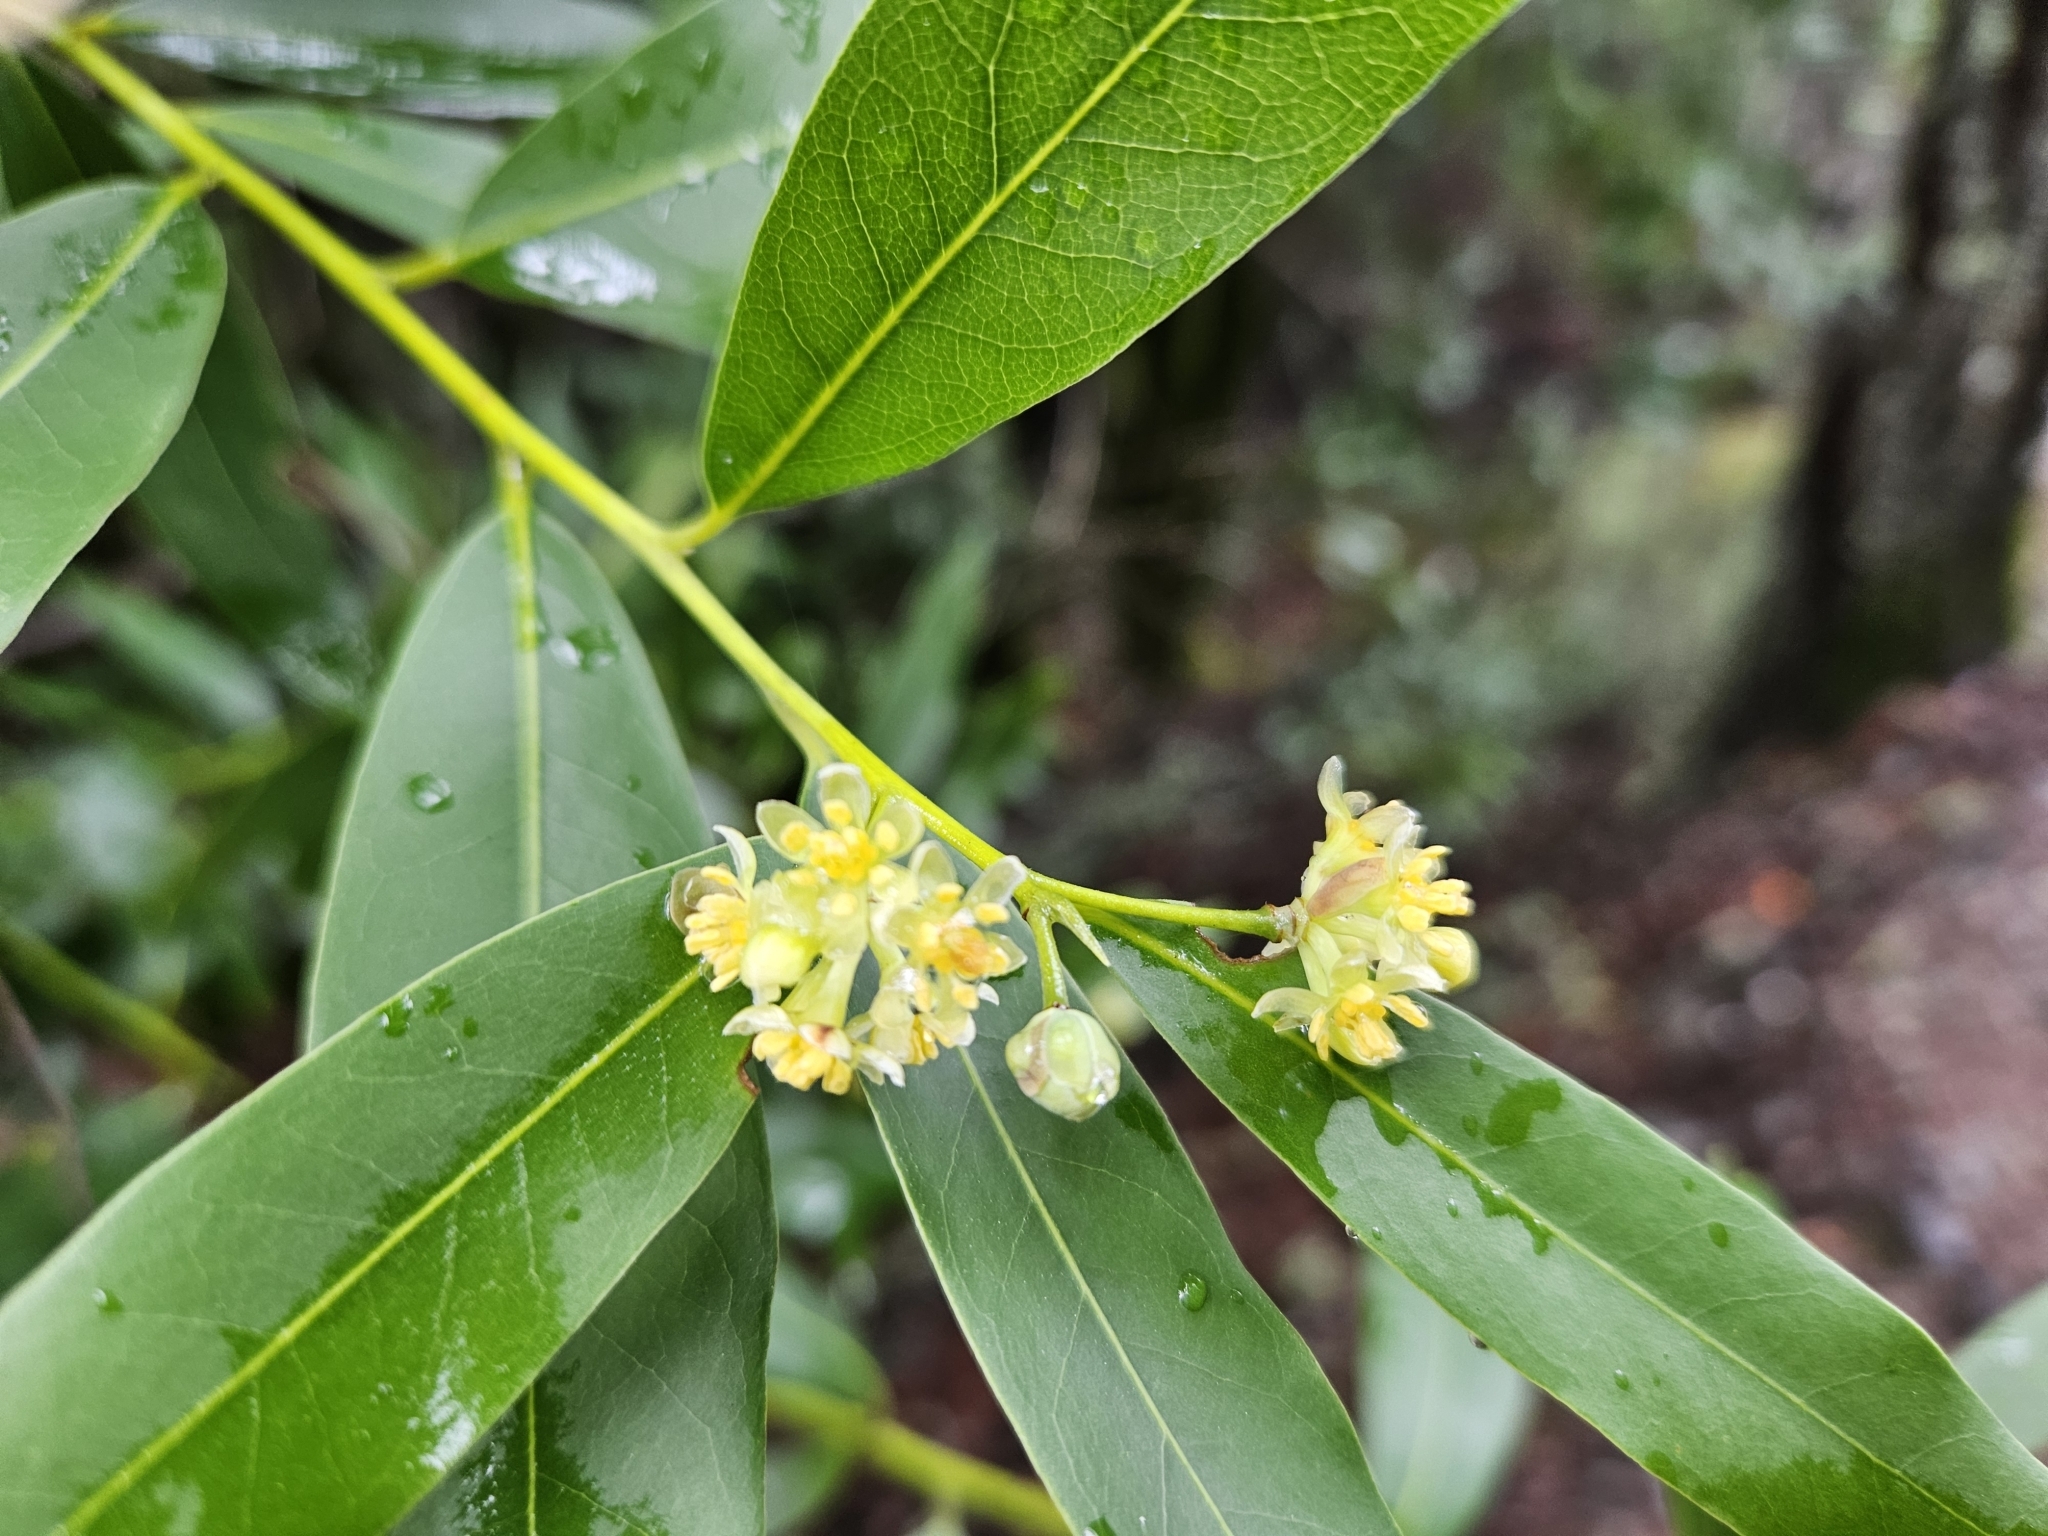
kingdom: Plantae
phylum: Tracheophyta
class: Magnoliopsida
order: Laurales
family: Lauraceae
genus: Umbellularia
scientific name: Umbellularia californica
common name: California bay
